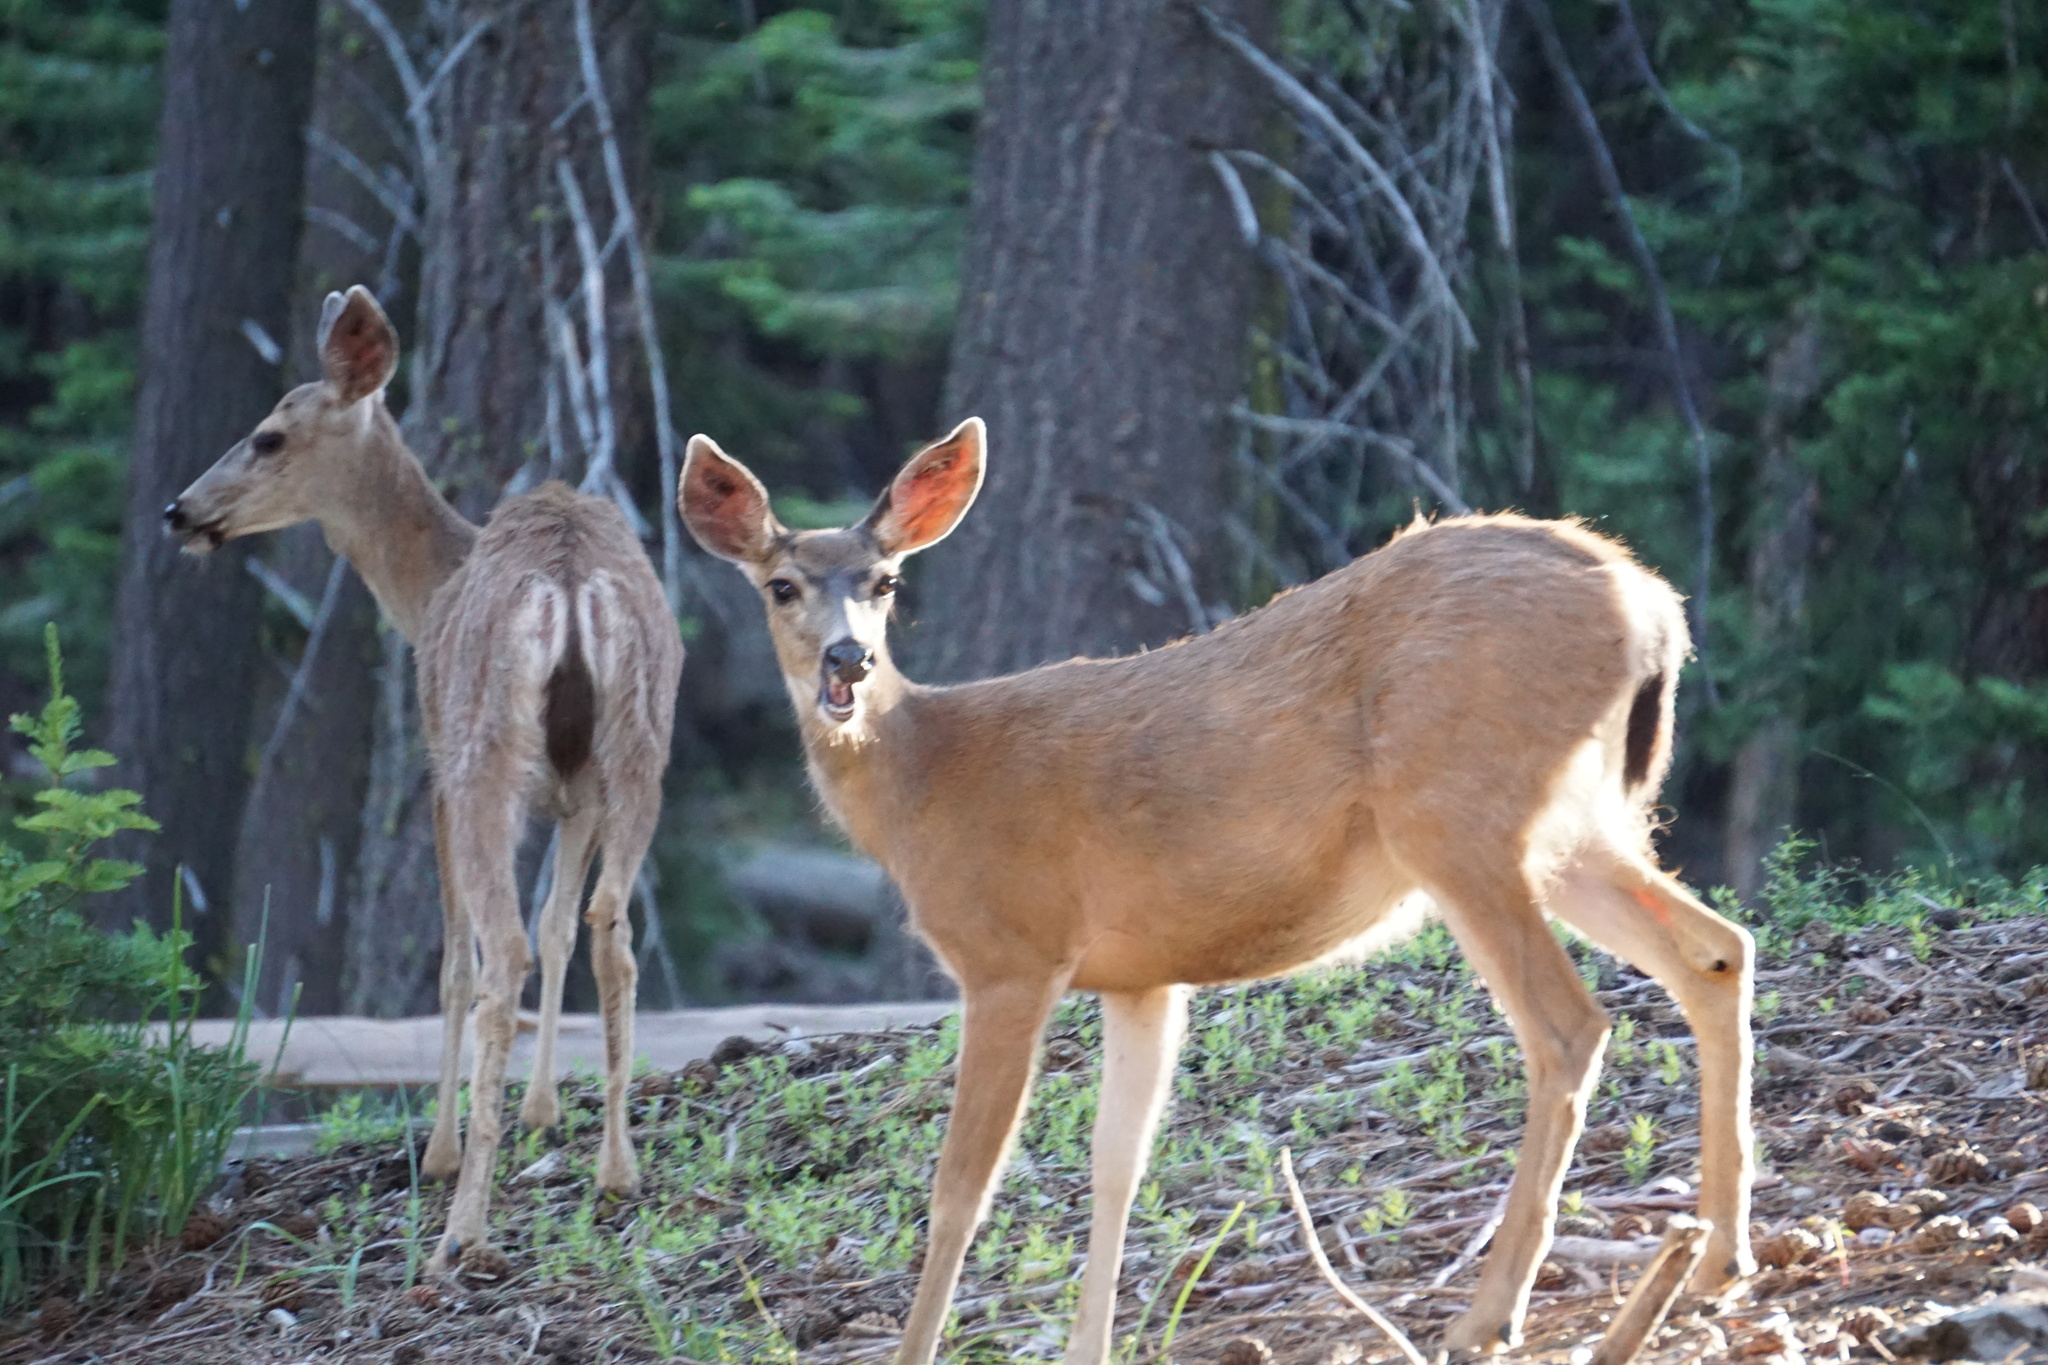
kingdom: Animalia
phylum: Chordata
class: Mammalia
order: Artiodactyla
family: Cervidae
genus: Odocoileus
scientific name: Odocoileus hemionus
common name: Mule deer
